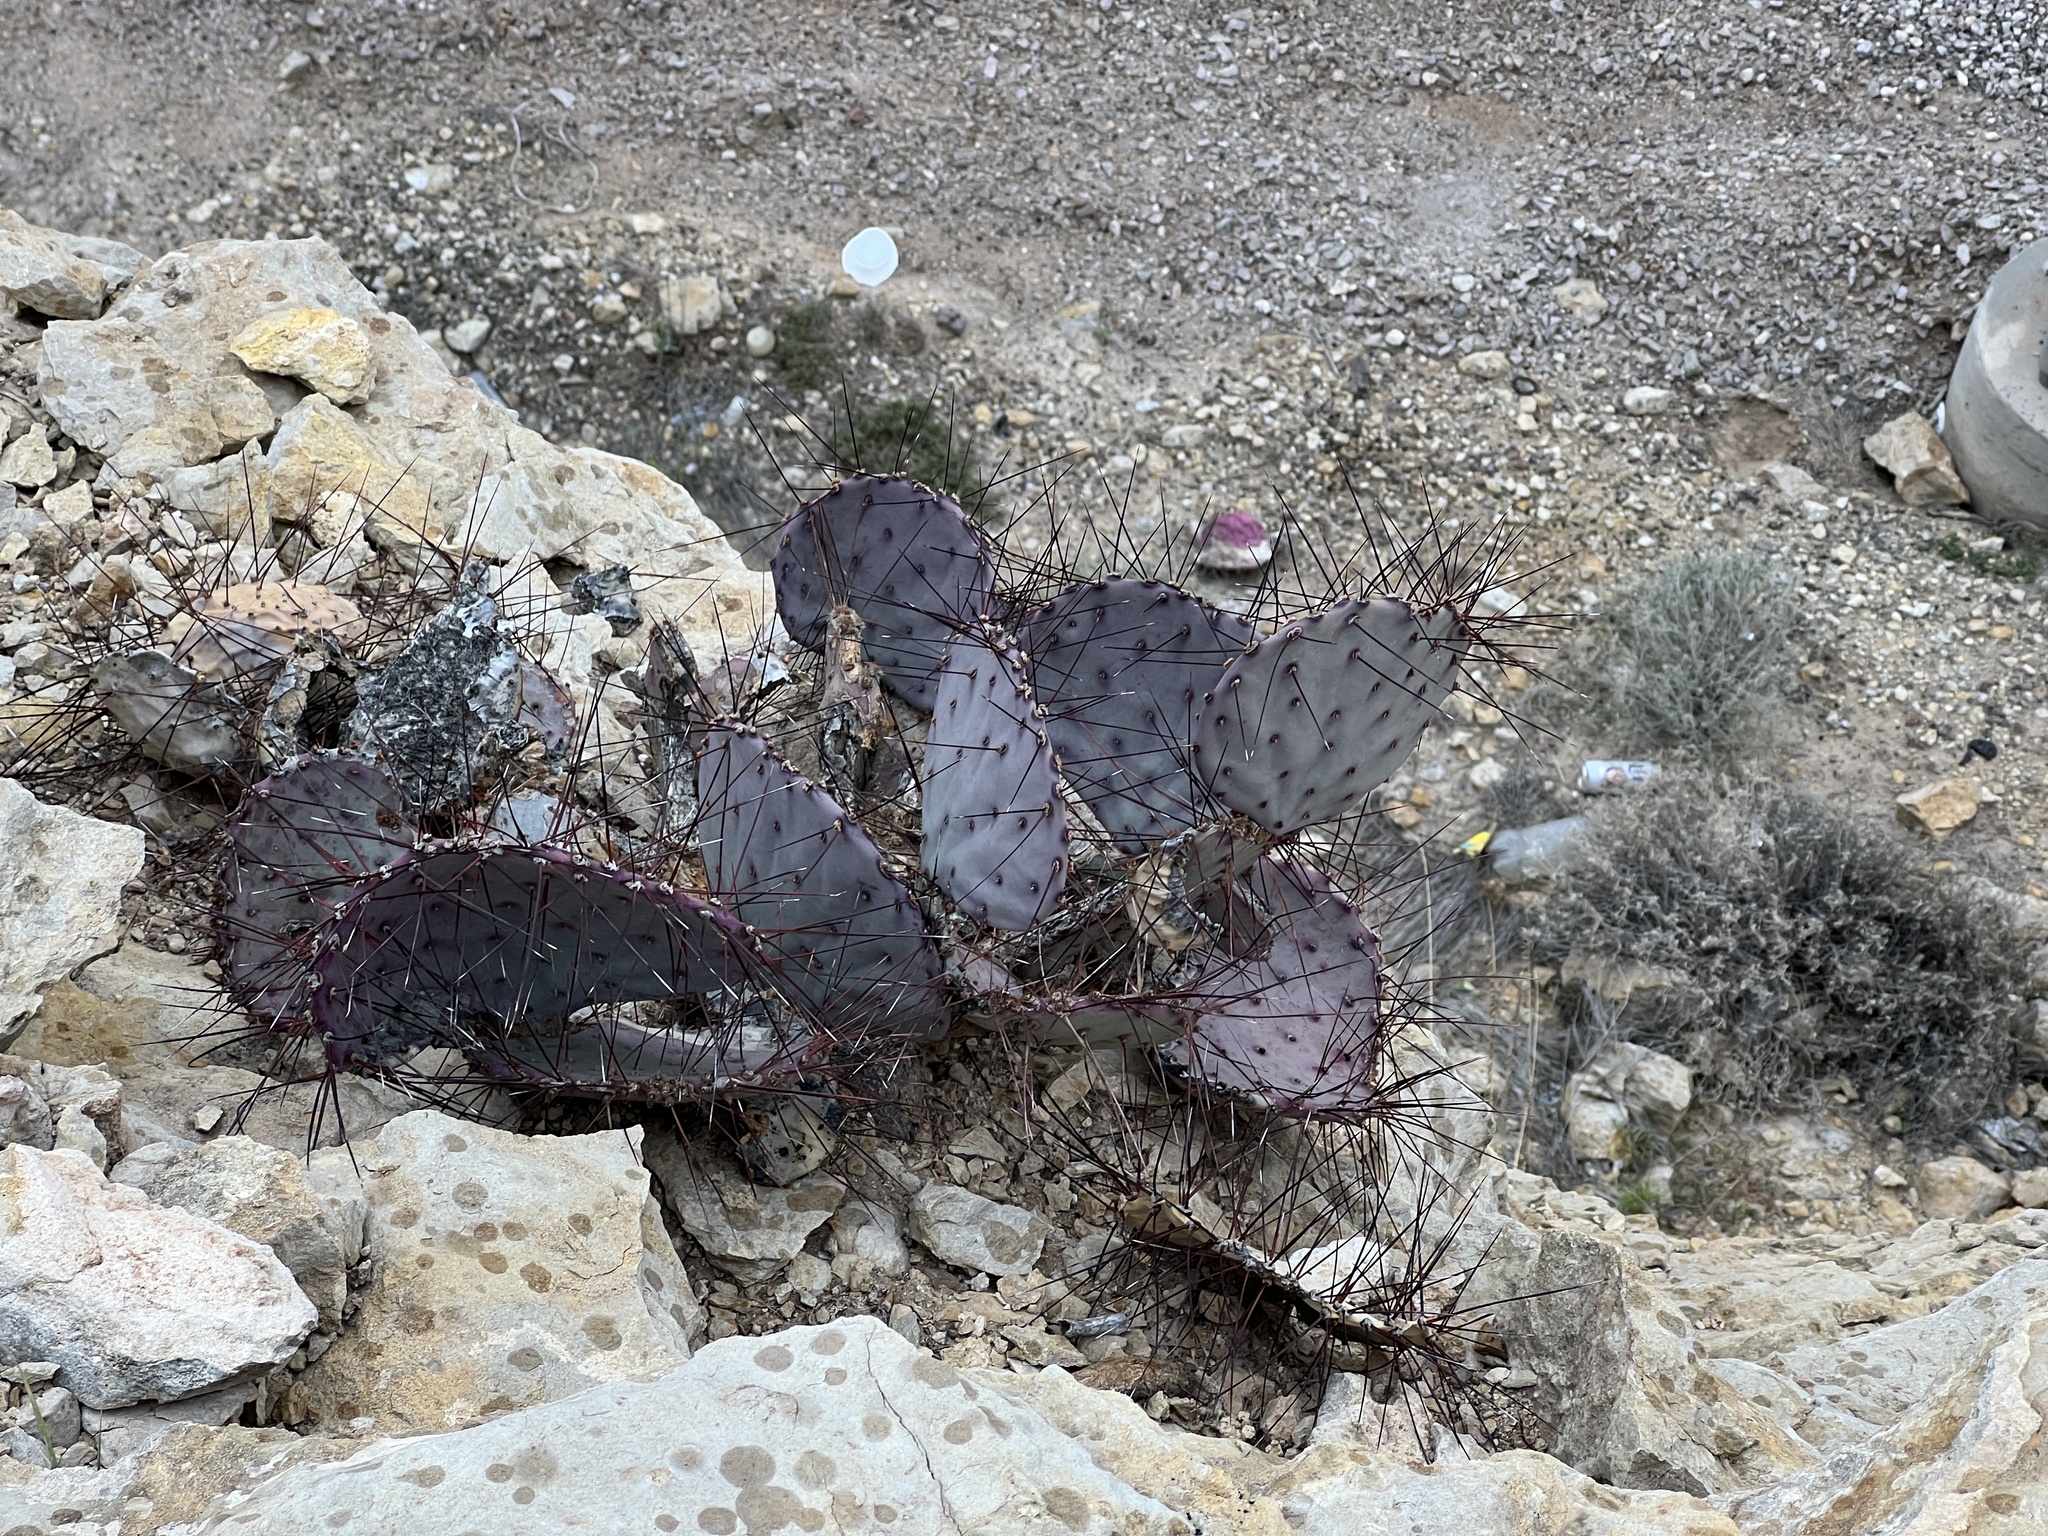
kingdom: Plantae
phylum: Tracheophyta
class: Magnoliopsida
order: Caryophyllales
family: Cactaceae
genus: Opuntia
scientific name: Opuntia macrocentra
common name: Purple prickly-pear
